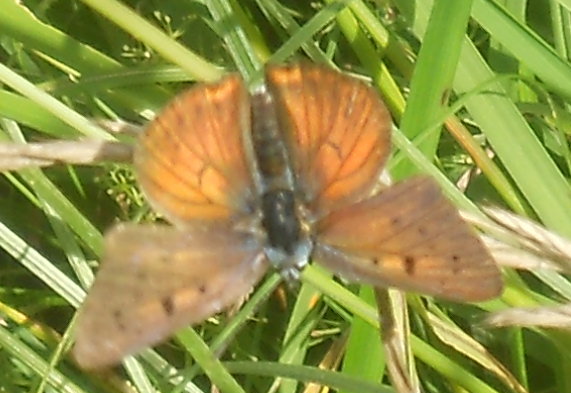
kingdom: Animalia
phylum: Arthropoda
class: Insecta
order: Lepidoptera
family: Lycaenidae
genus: Lycaena
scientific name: Lycaena alciphron
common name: Purple-shot copper
